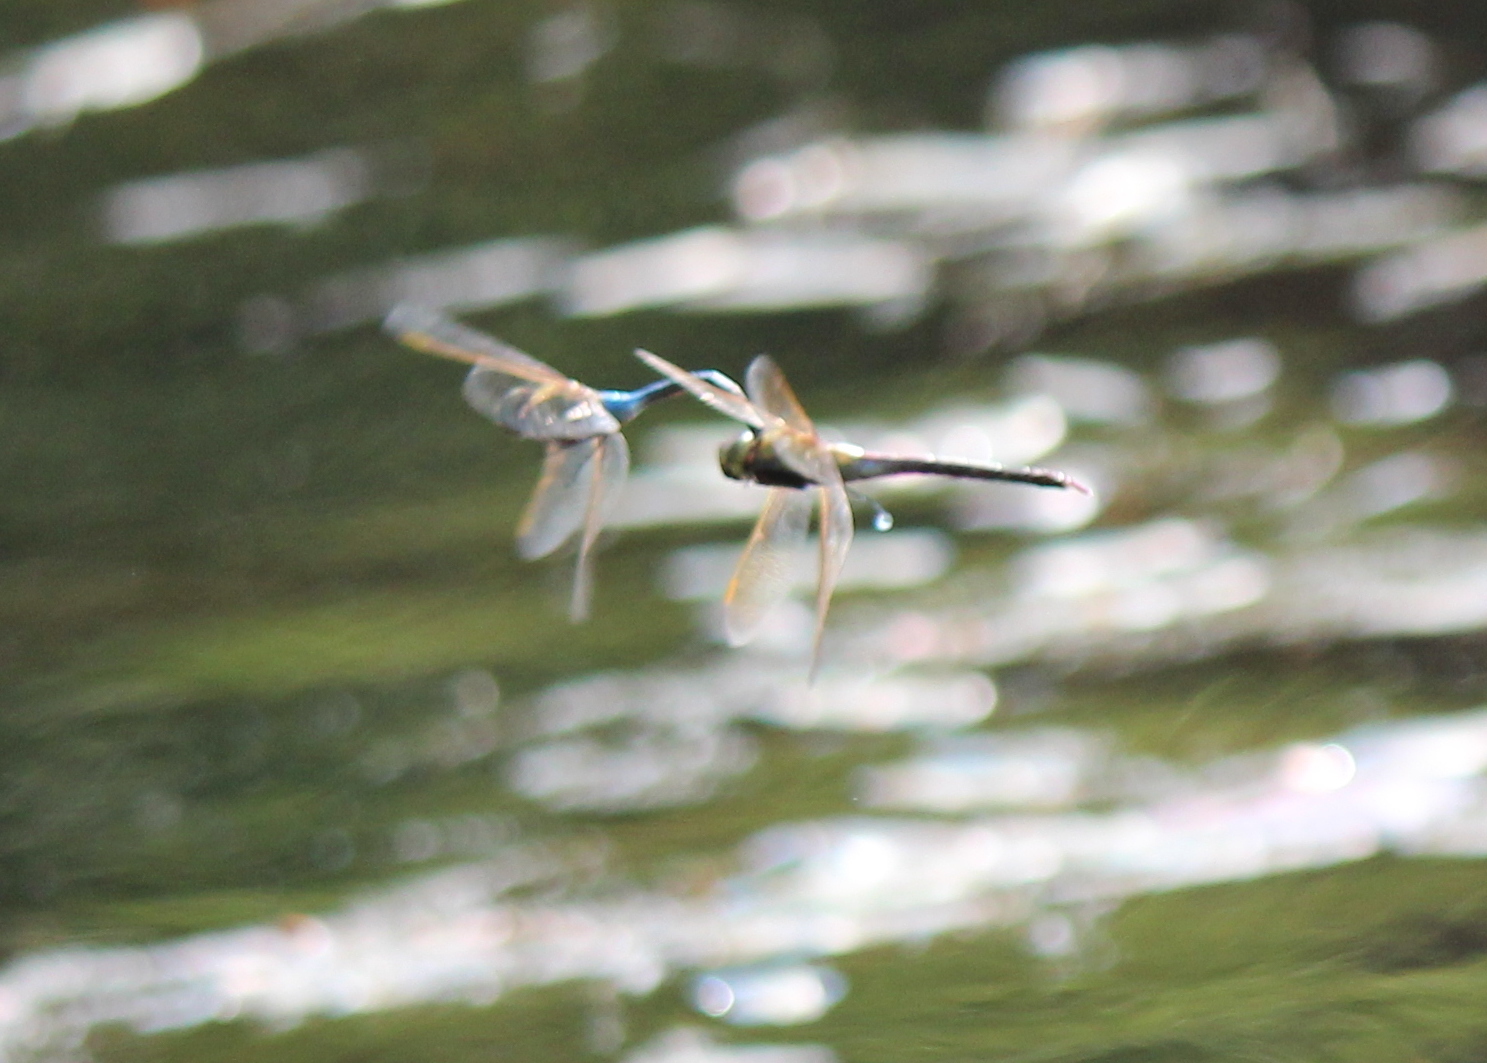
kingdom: Animalia
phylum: Arthropoda
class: Insecta
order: Odonata
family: Aeshnidae
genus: Anax
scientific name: Anax junius
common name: Common green darner
